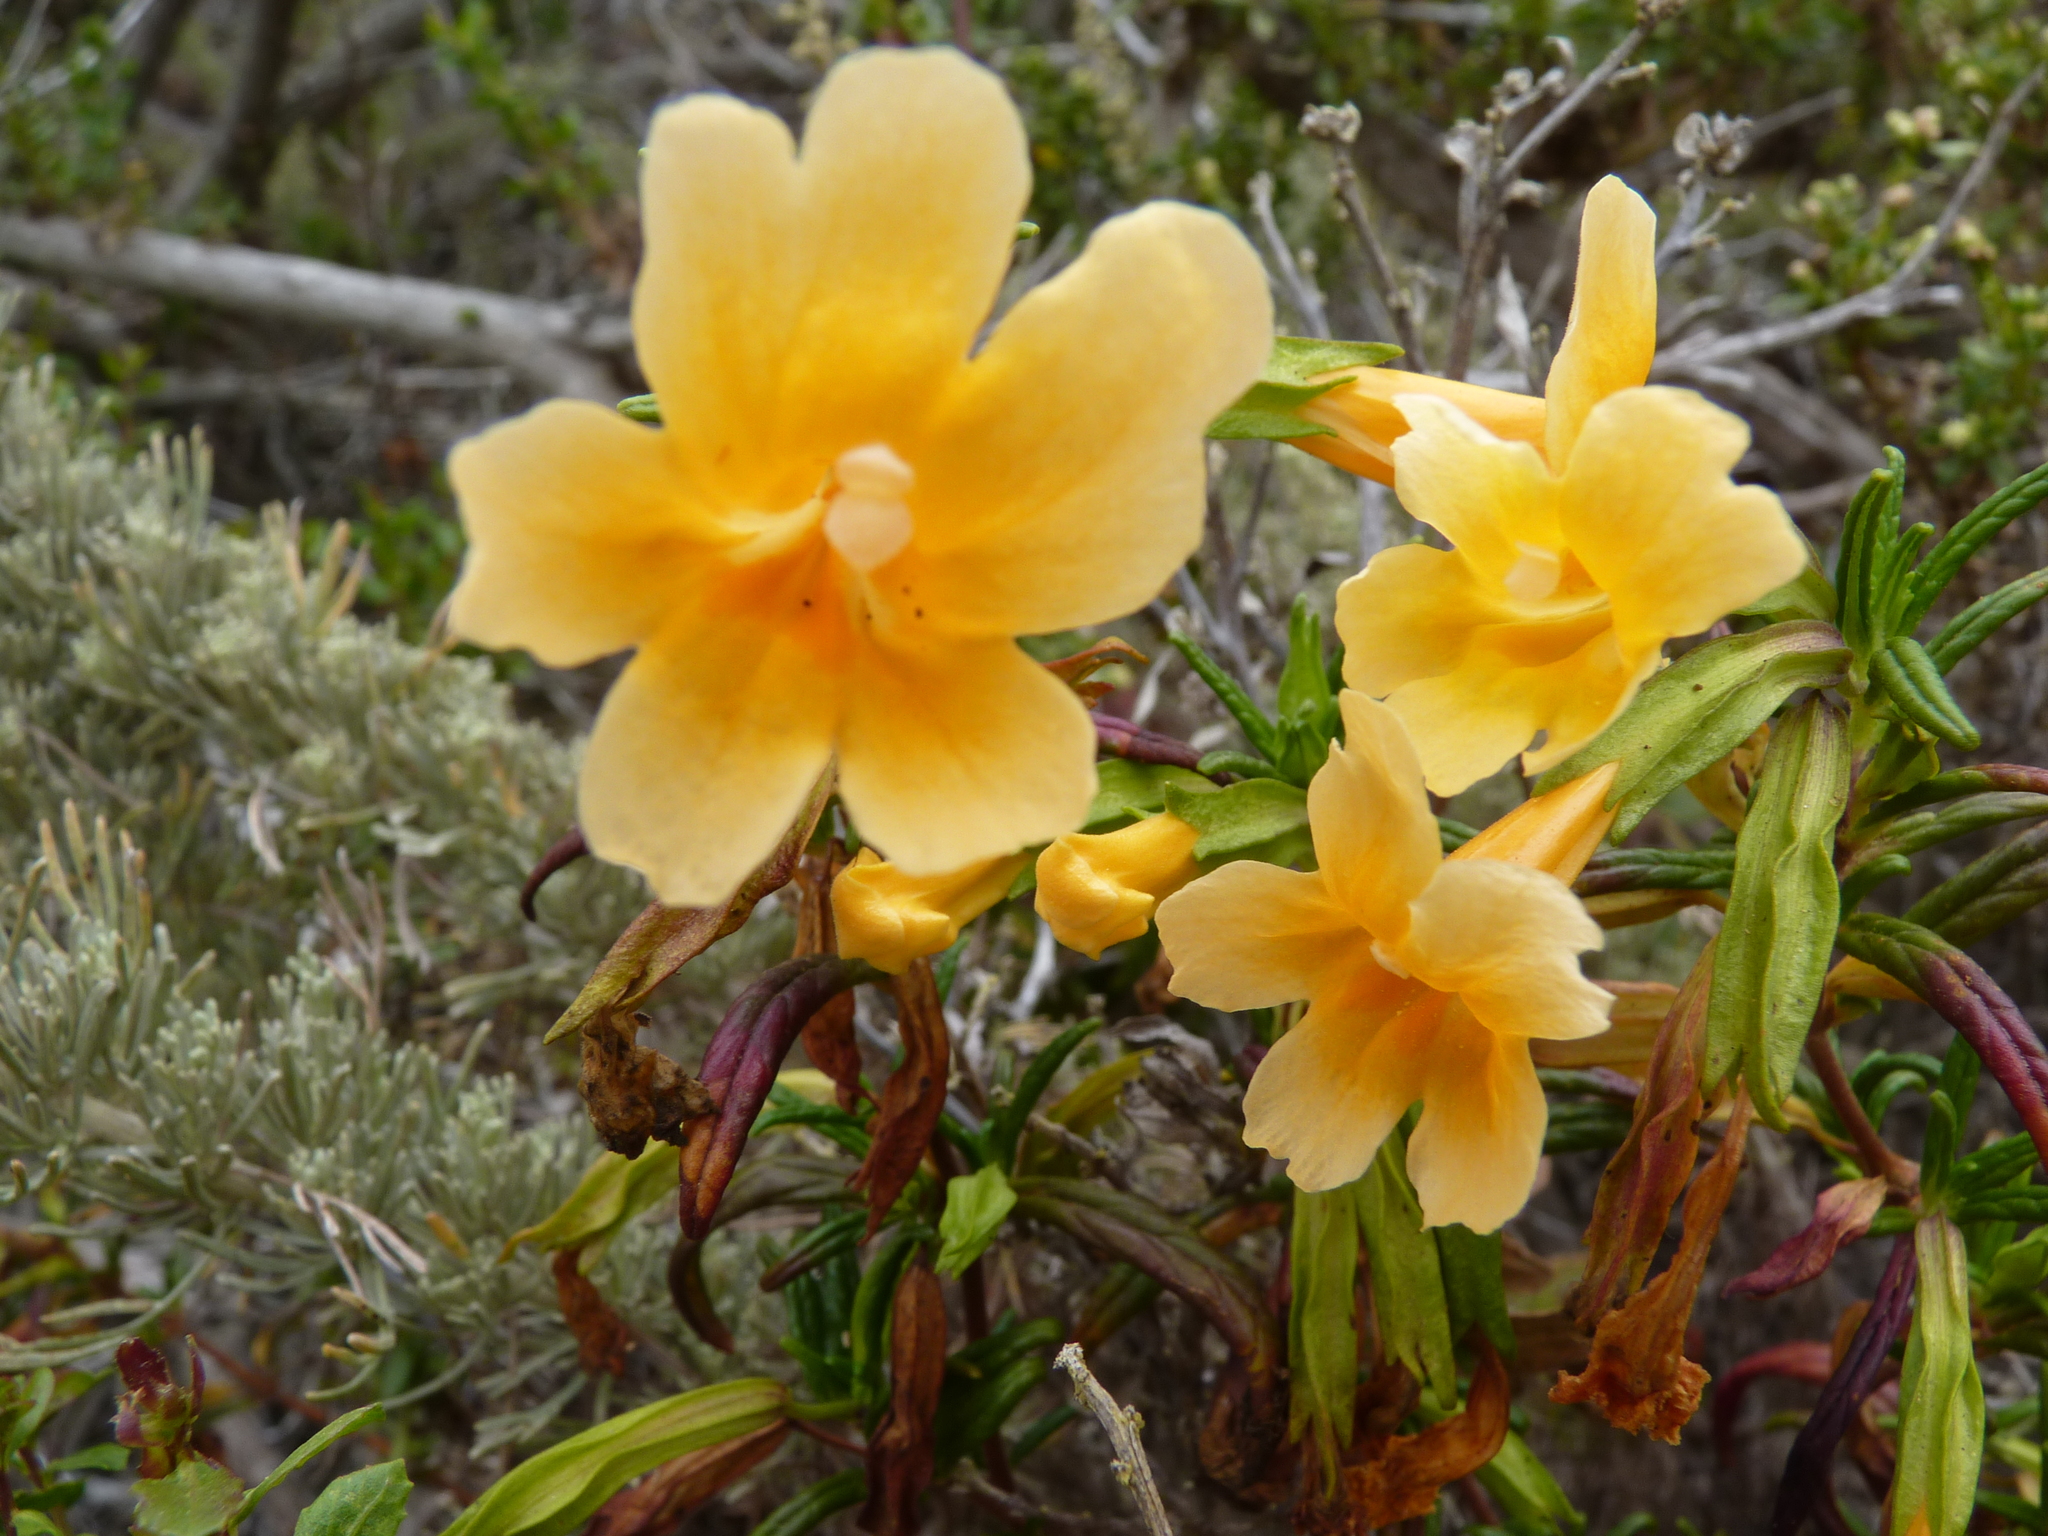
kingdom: Plantae
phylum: Tracheophyta
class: Magnoliopsida
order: Lamiales
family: Phrymaceae
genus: Diplacus
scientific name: Diplacus aurantiacus
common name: Bush monkey-flower
